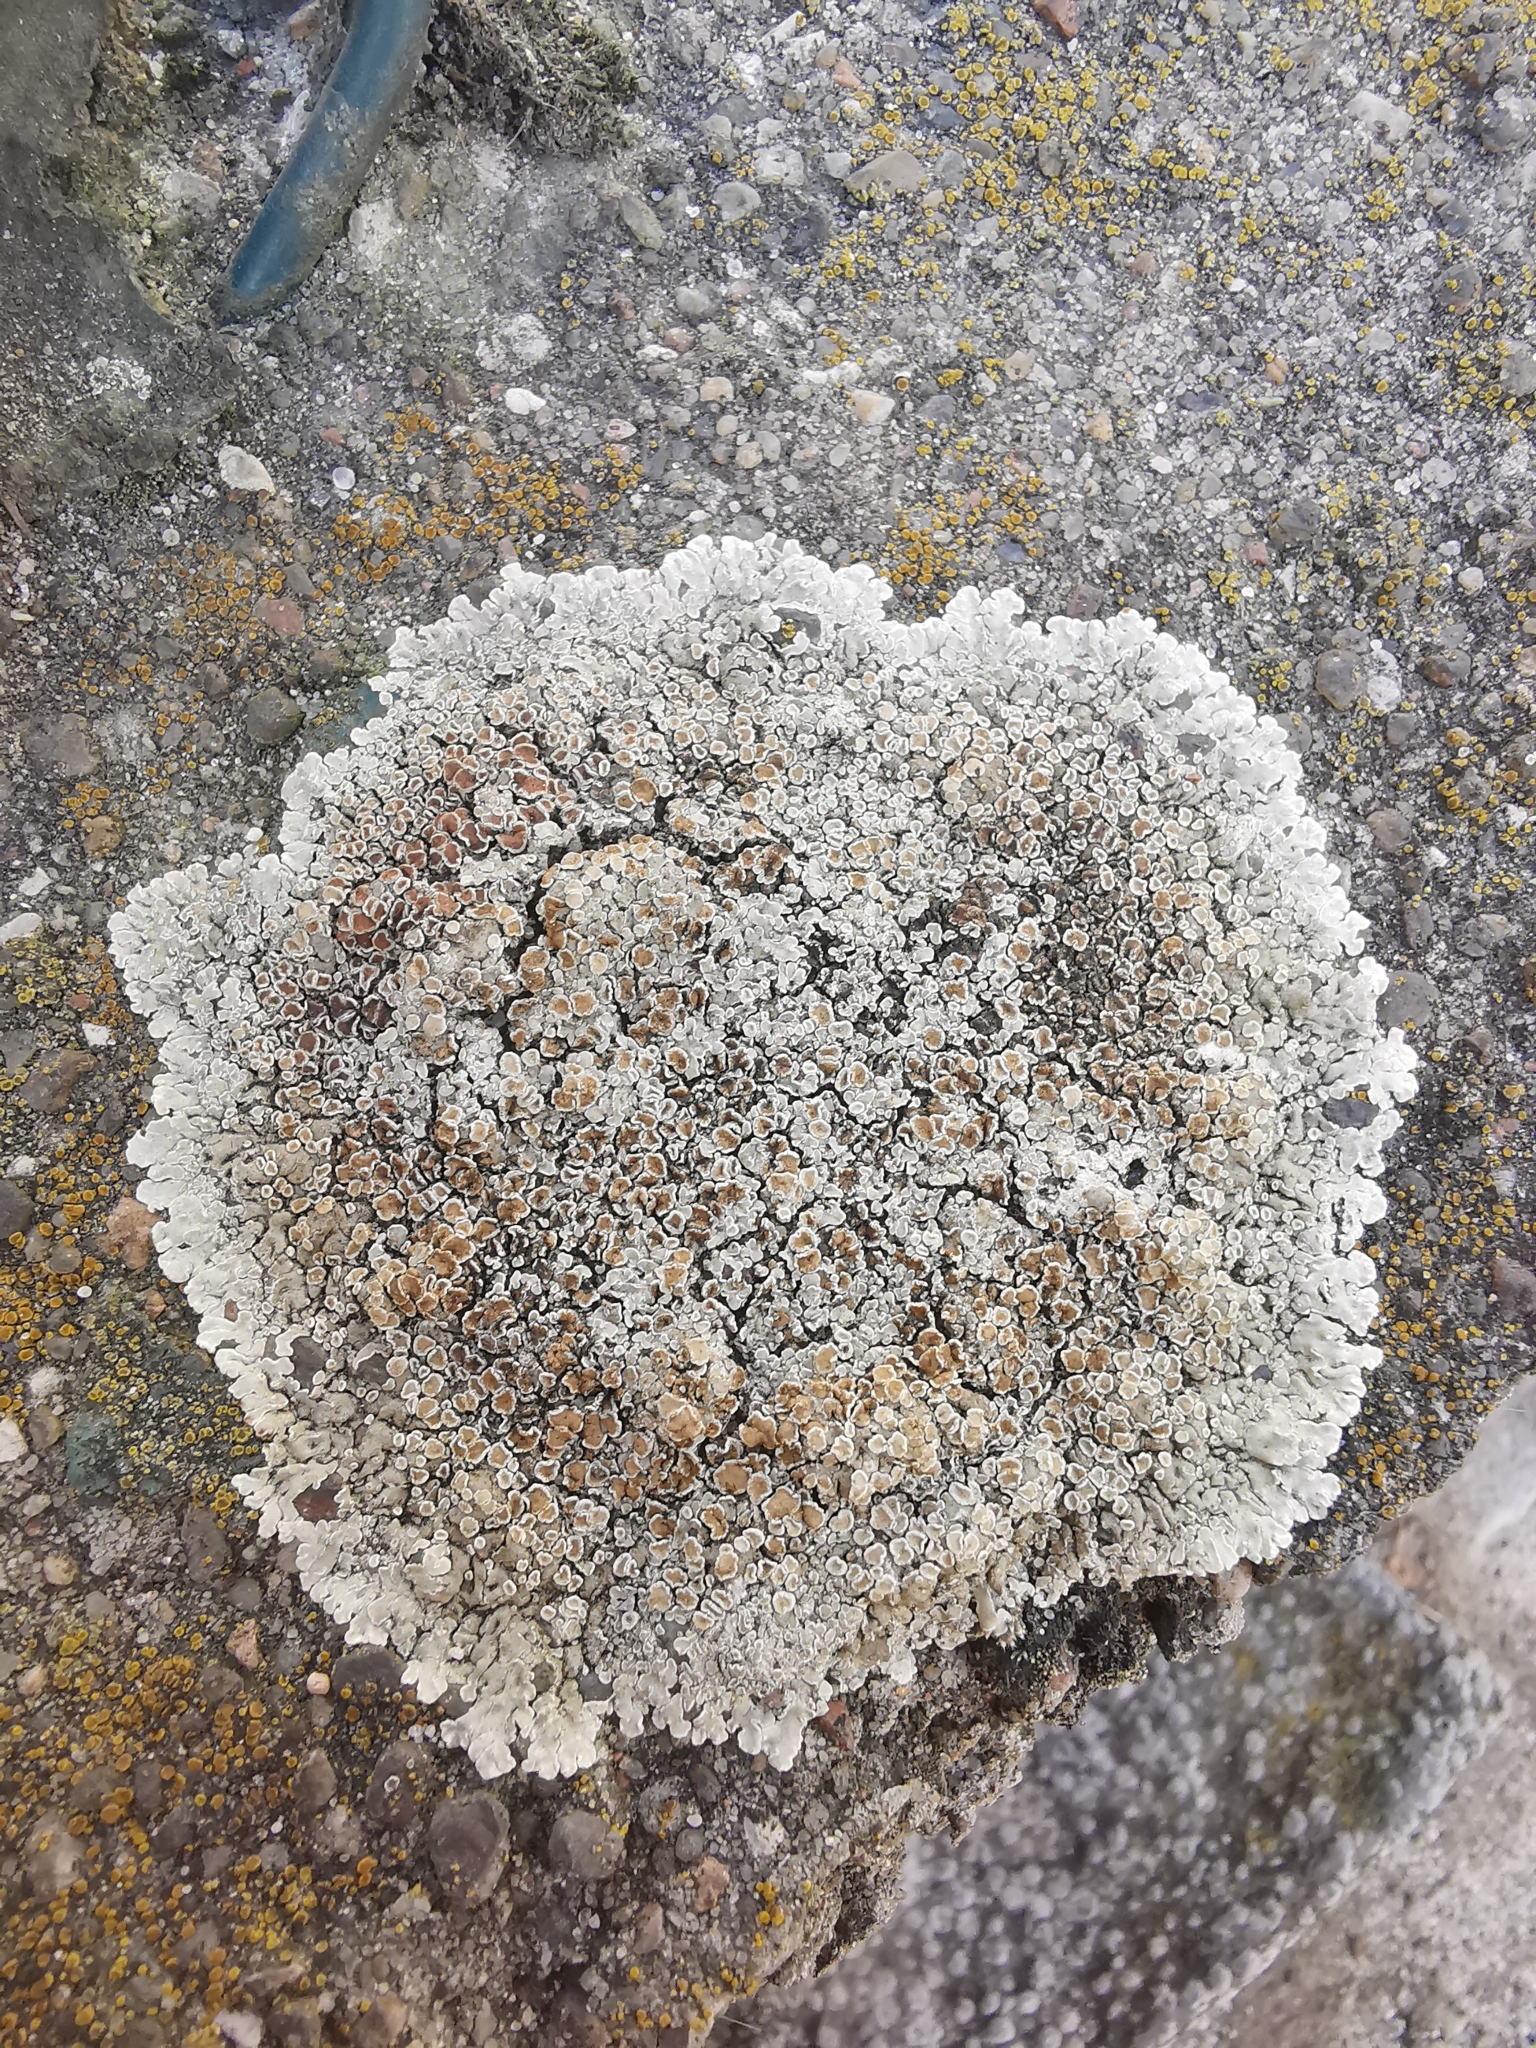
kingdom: Fungi
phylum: Ascomycota
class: Lecanoromycetes
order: Lecanorales
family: Lecanoraceae
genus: Protoparmeliopsis
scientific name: Protoparmeliopsis muralis
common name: Stonewall rim lichen
